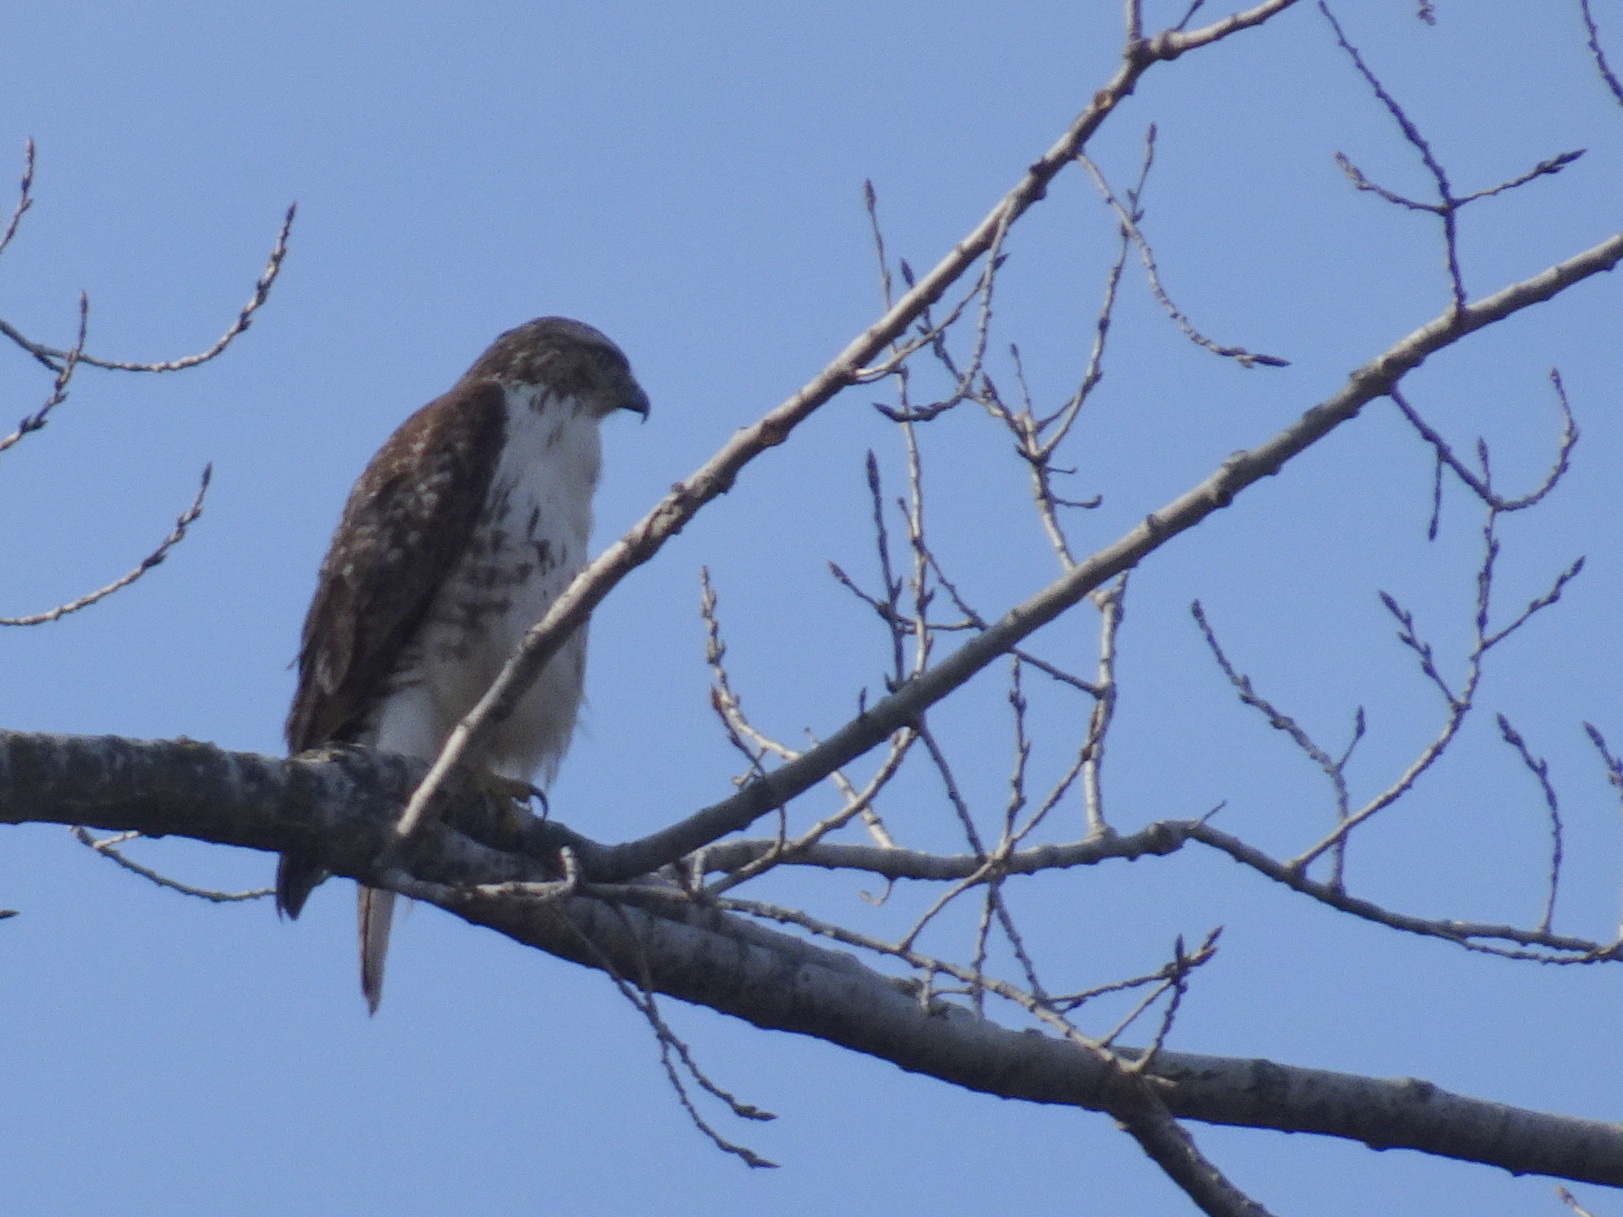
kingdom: Animalia
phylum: Chordata
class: Aves
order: Accipitriformes
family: Accipitridae
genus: Buteo
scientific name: Buteo jamaicensis
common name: Red-tailed hawk
